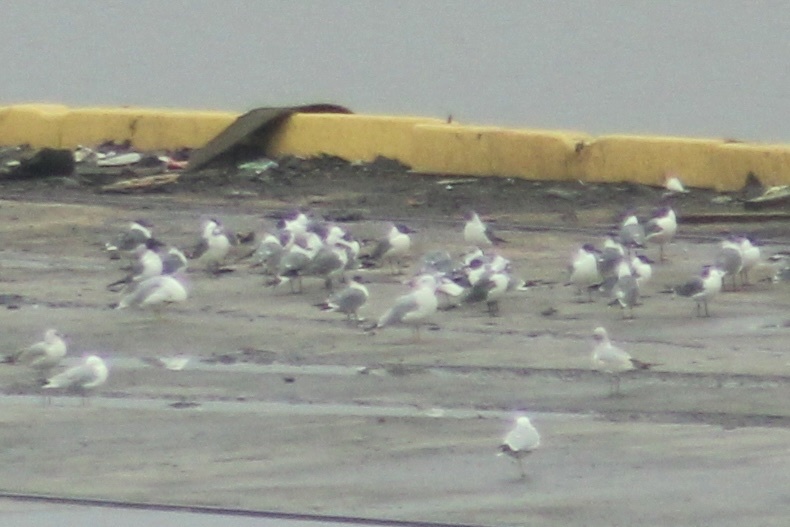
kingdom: Animalia
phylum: Chordata
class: Aves
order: Charadriiformes
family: Laridae
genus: Leucophaeus
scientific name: Leucophaeus atricilla
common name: Laughing gull
